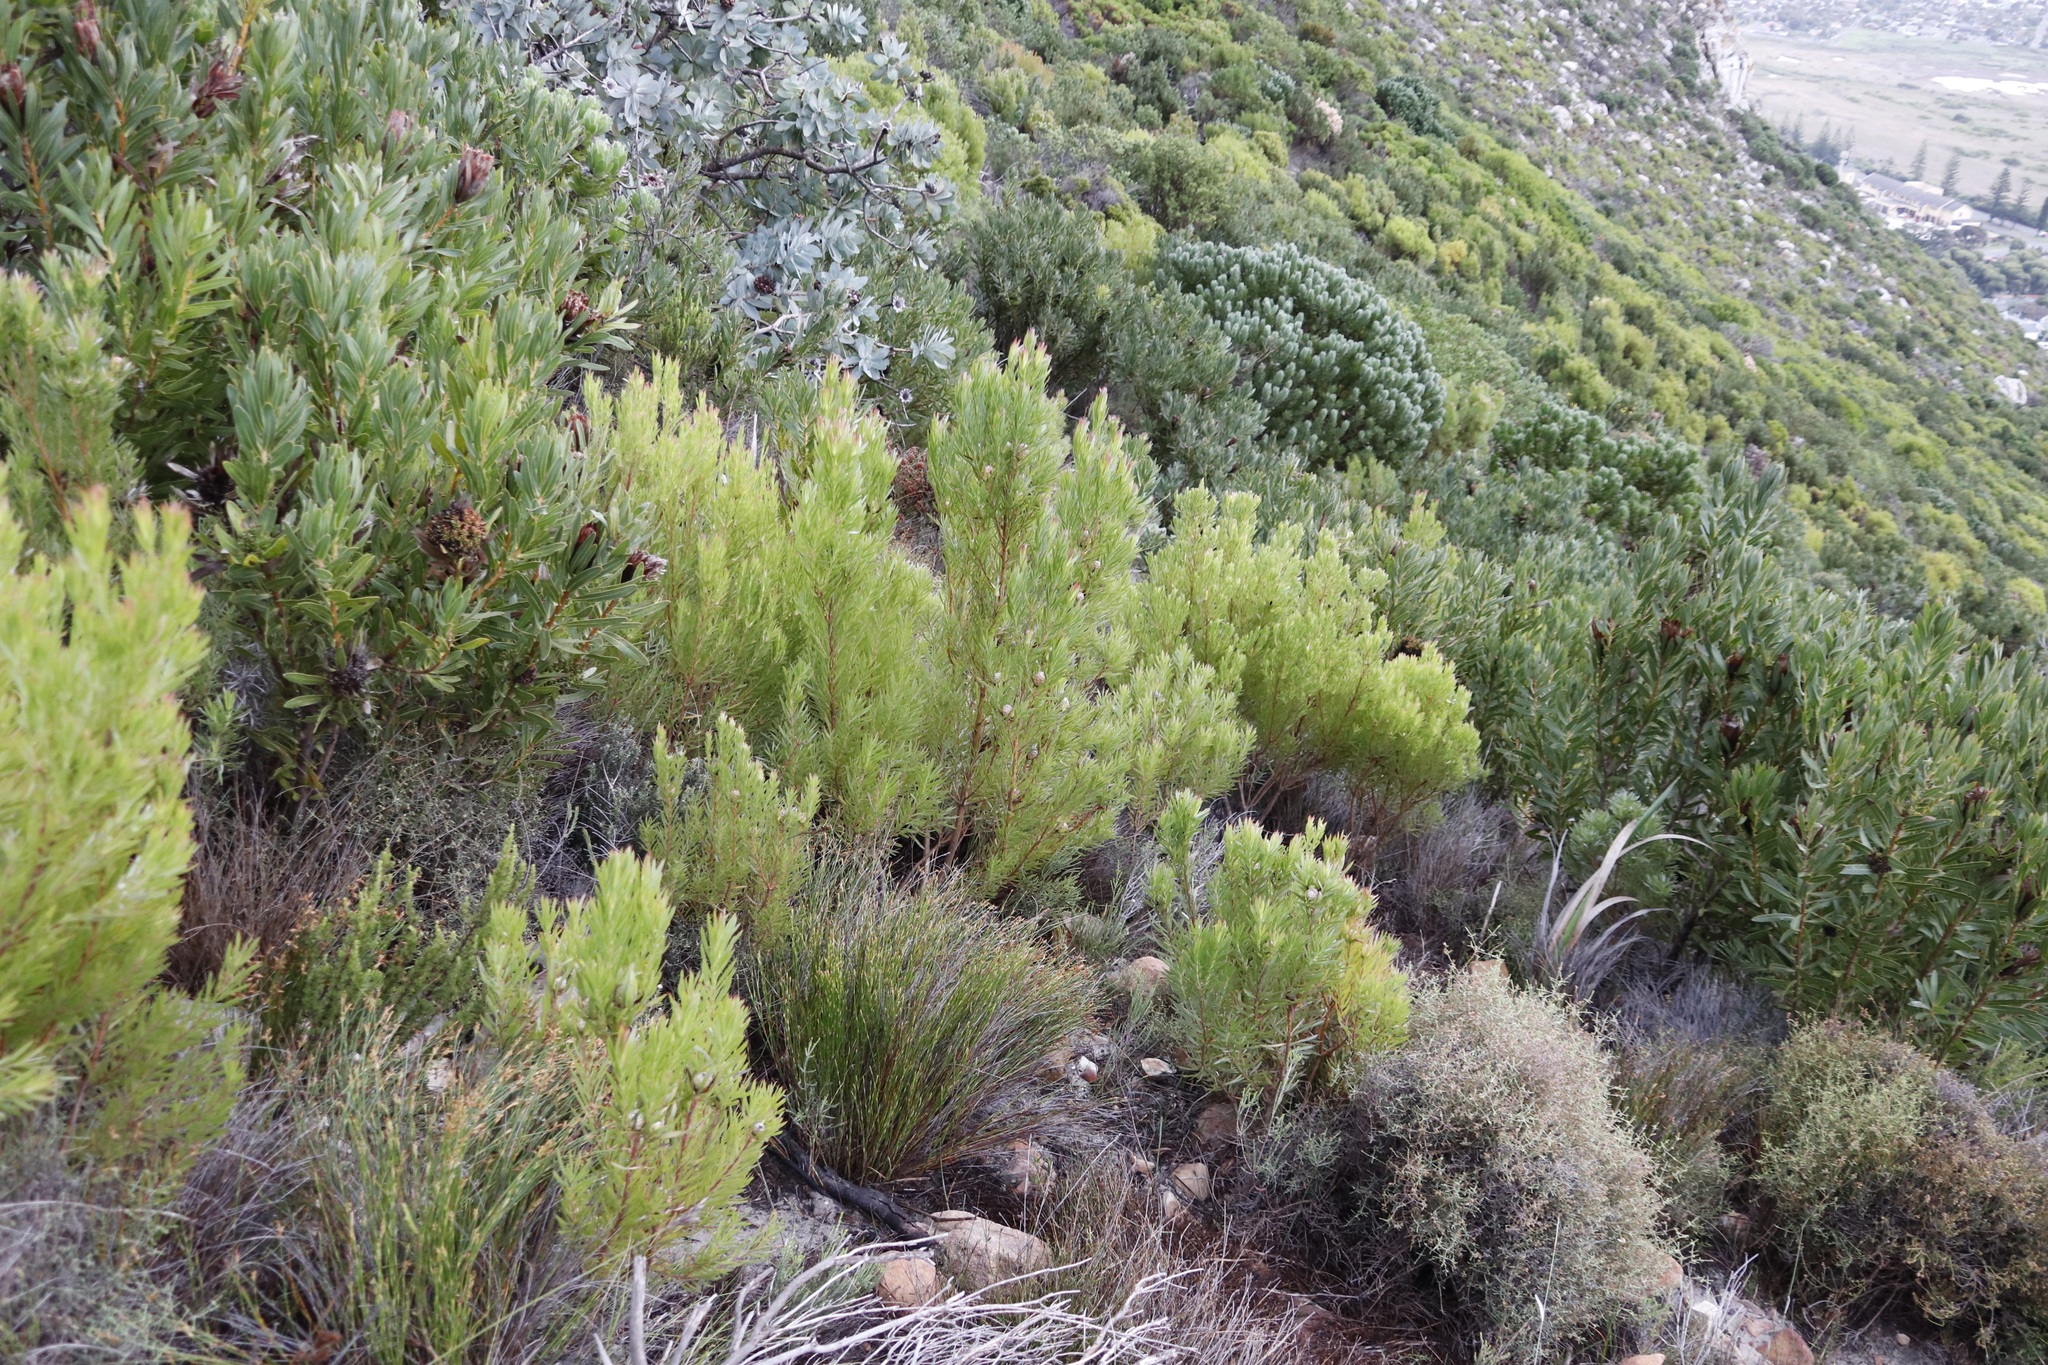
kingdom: Plantae
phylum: Tracheophyta
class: Magnoliopsida
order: Proteales
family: Proteaceae
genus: Leucadendron
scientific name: Leucadendron xanthoconus
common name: Sickle-leaf conebush
